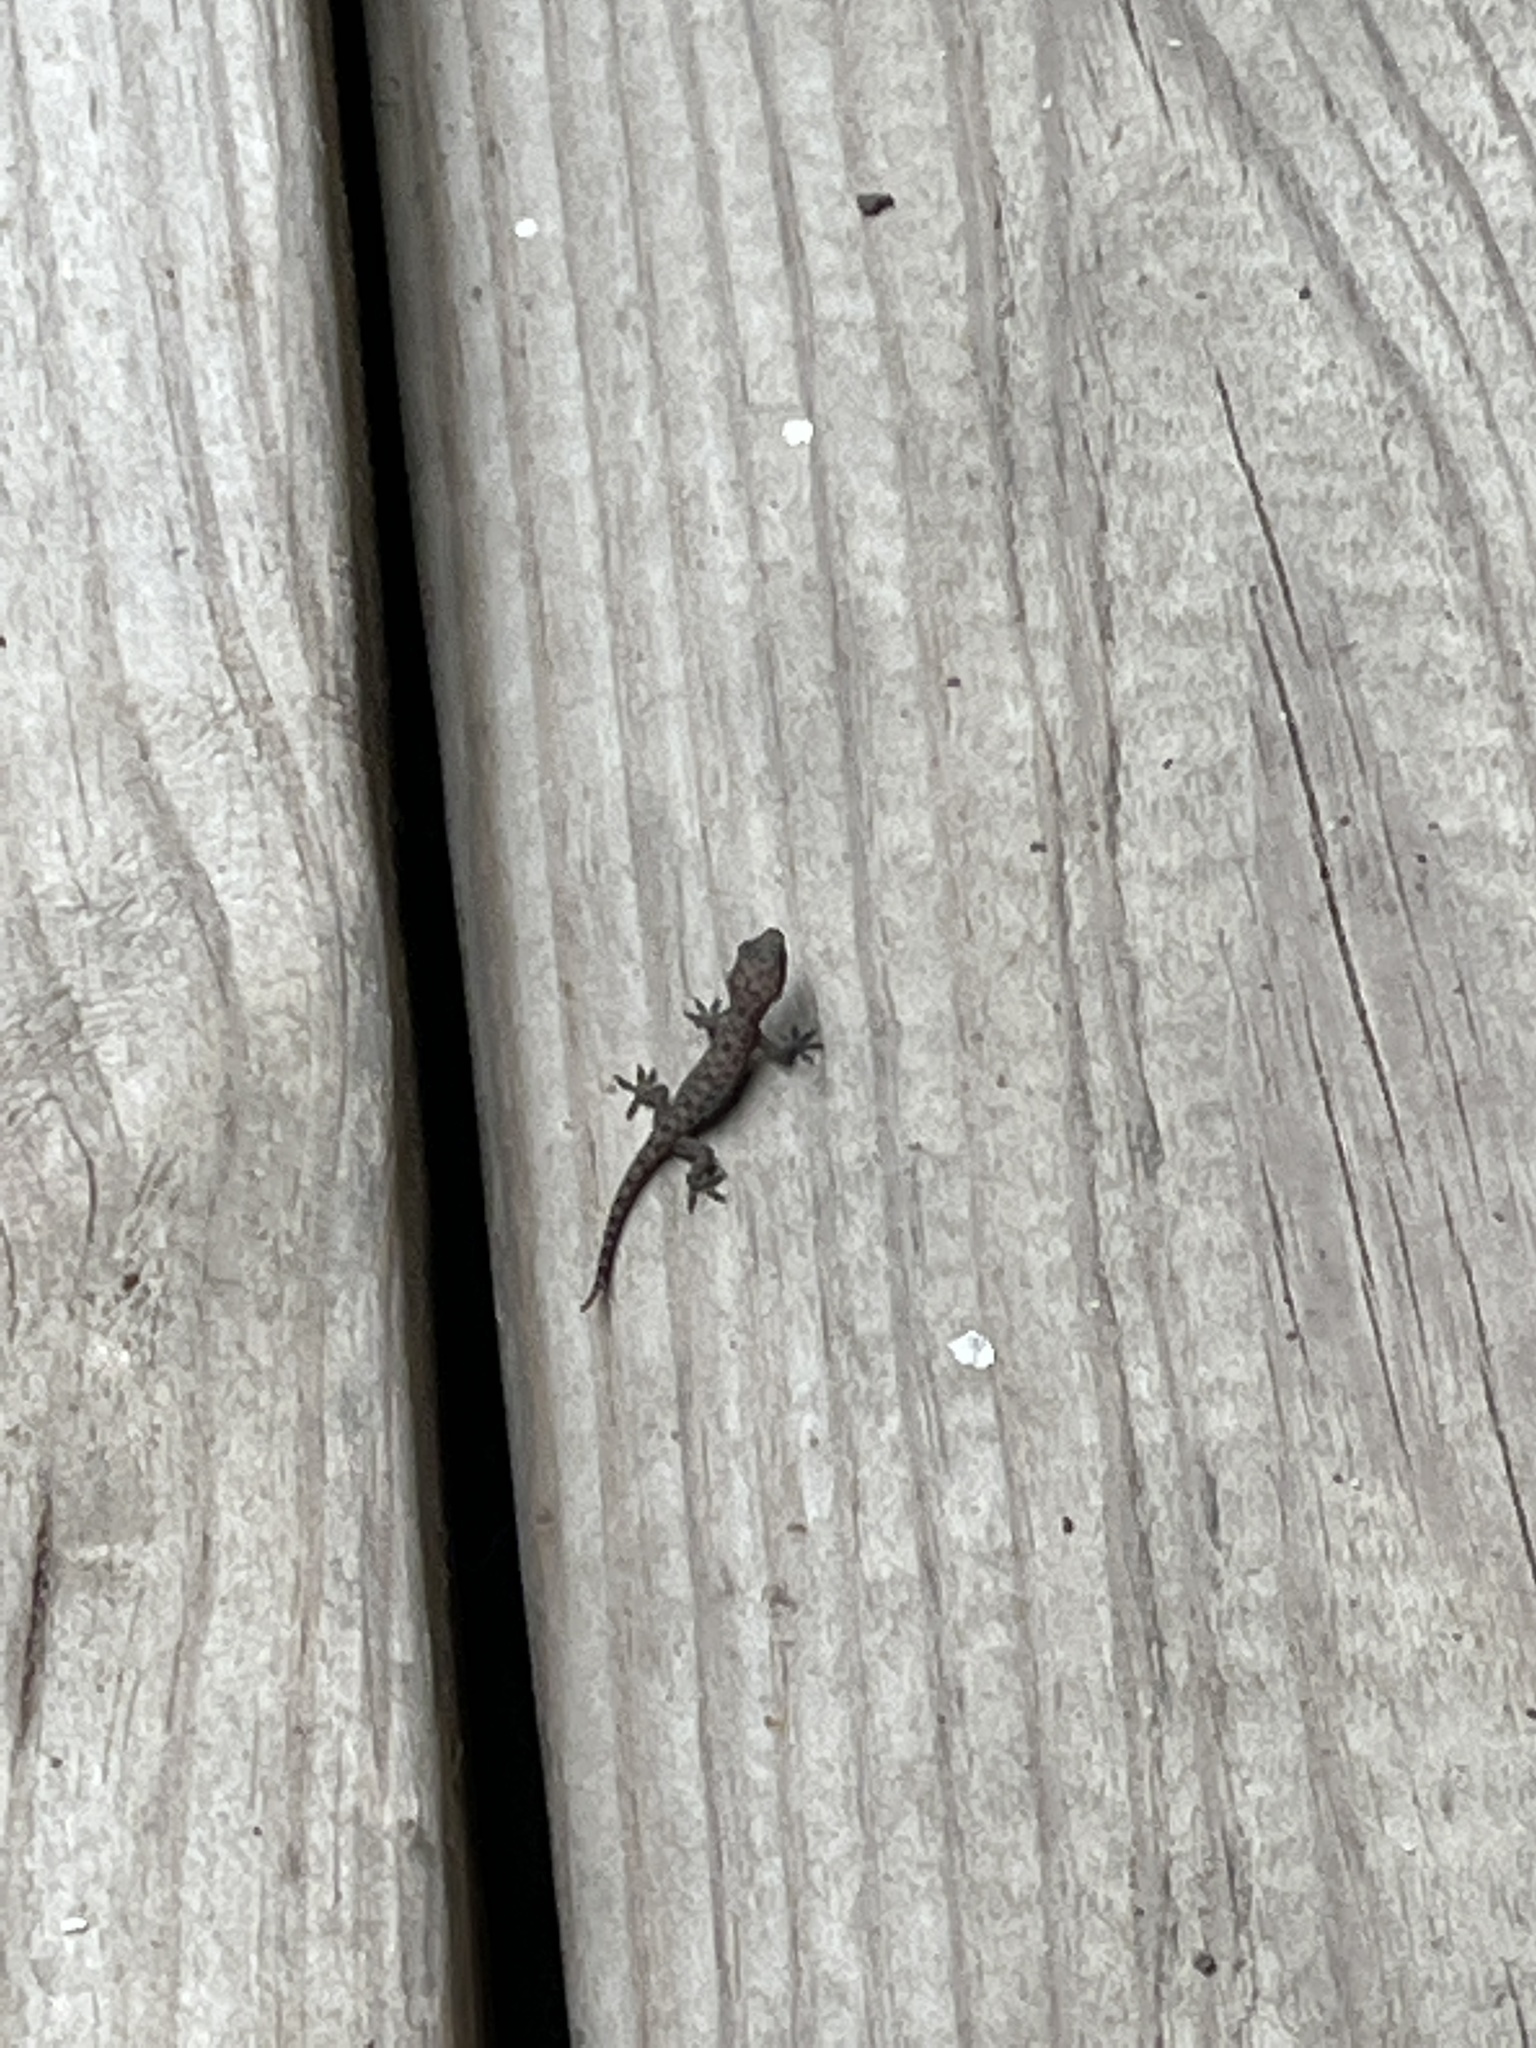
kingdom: Animalia
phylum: Chordata
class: Squamata
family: Gekkonidae
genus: Hemidactylus
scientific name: Hemidactylus parvimaculatus
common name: Spotted house gecko
